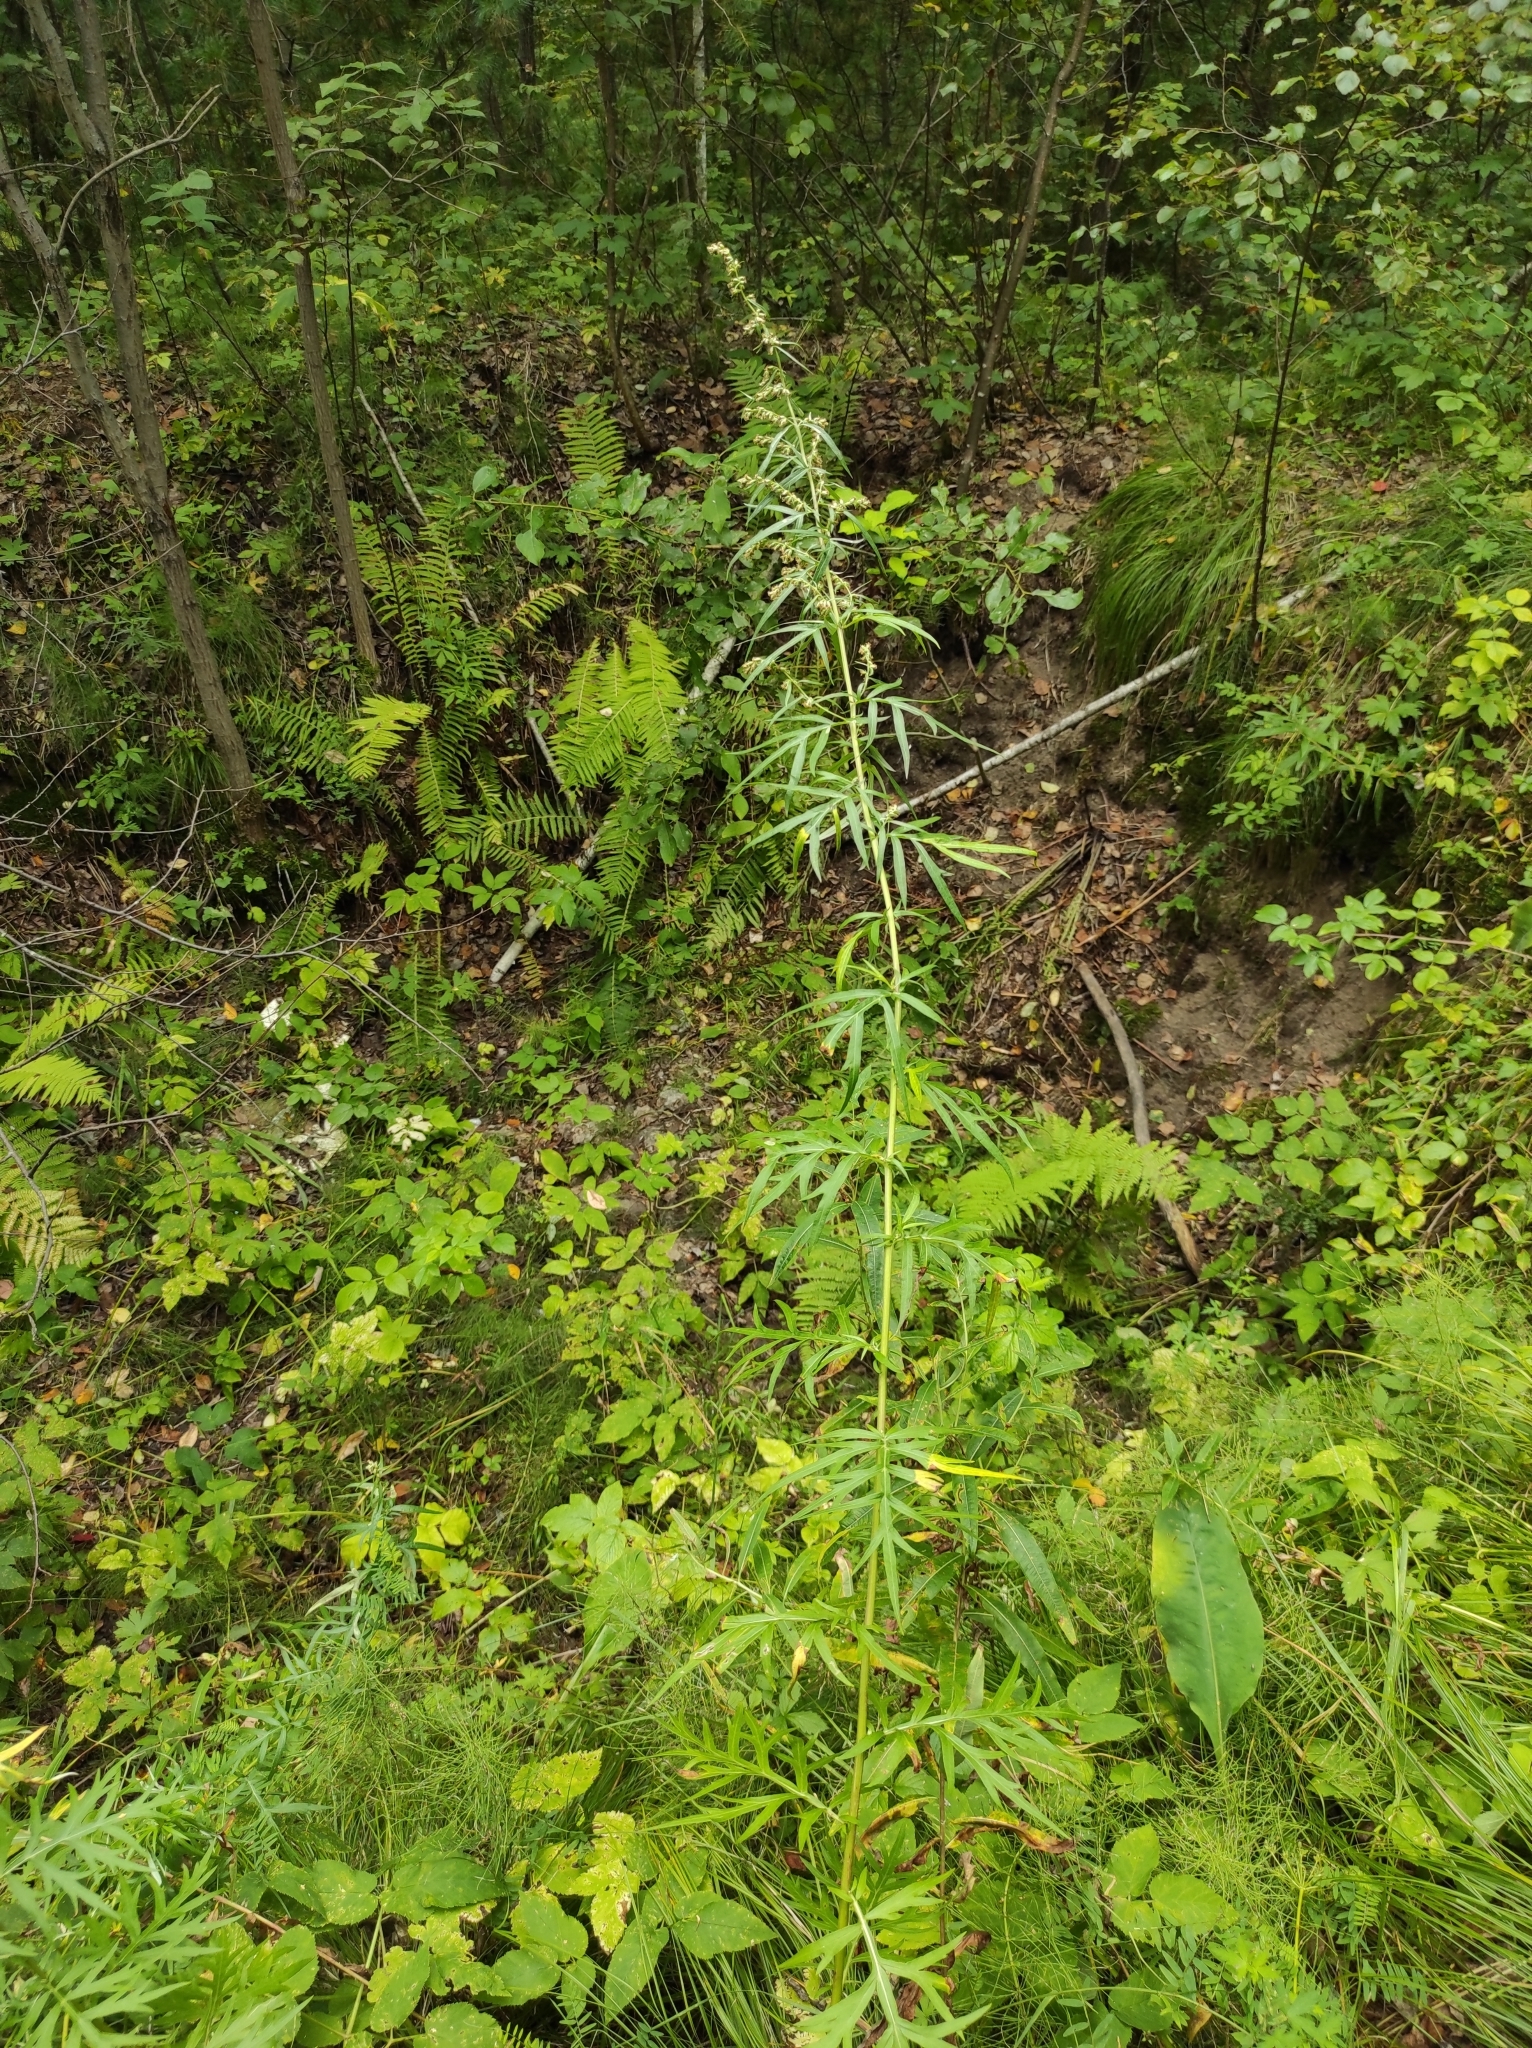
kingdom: Plantae
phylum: Tracheophyta
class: Magnoliopsida
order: Asterales
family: Asteraceae
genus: Artemisia
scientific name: Artemisia vulgaris
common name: Mugwort
